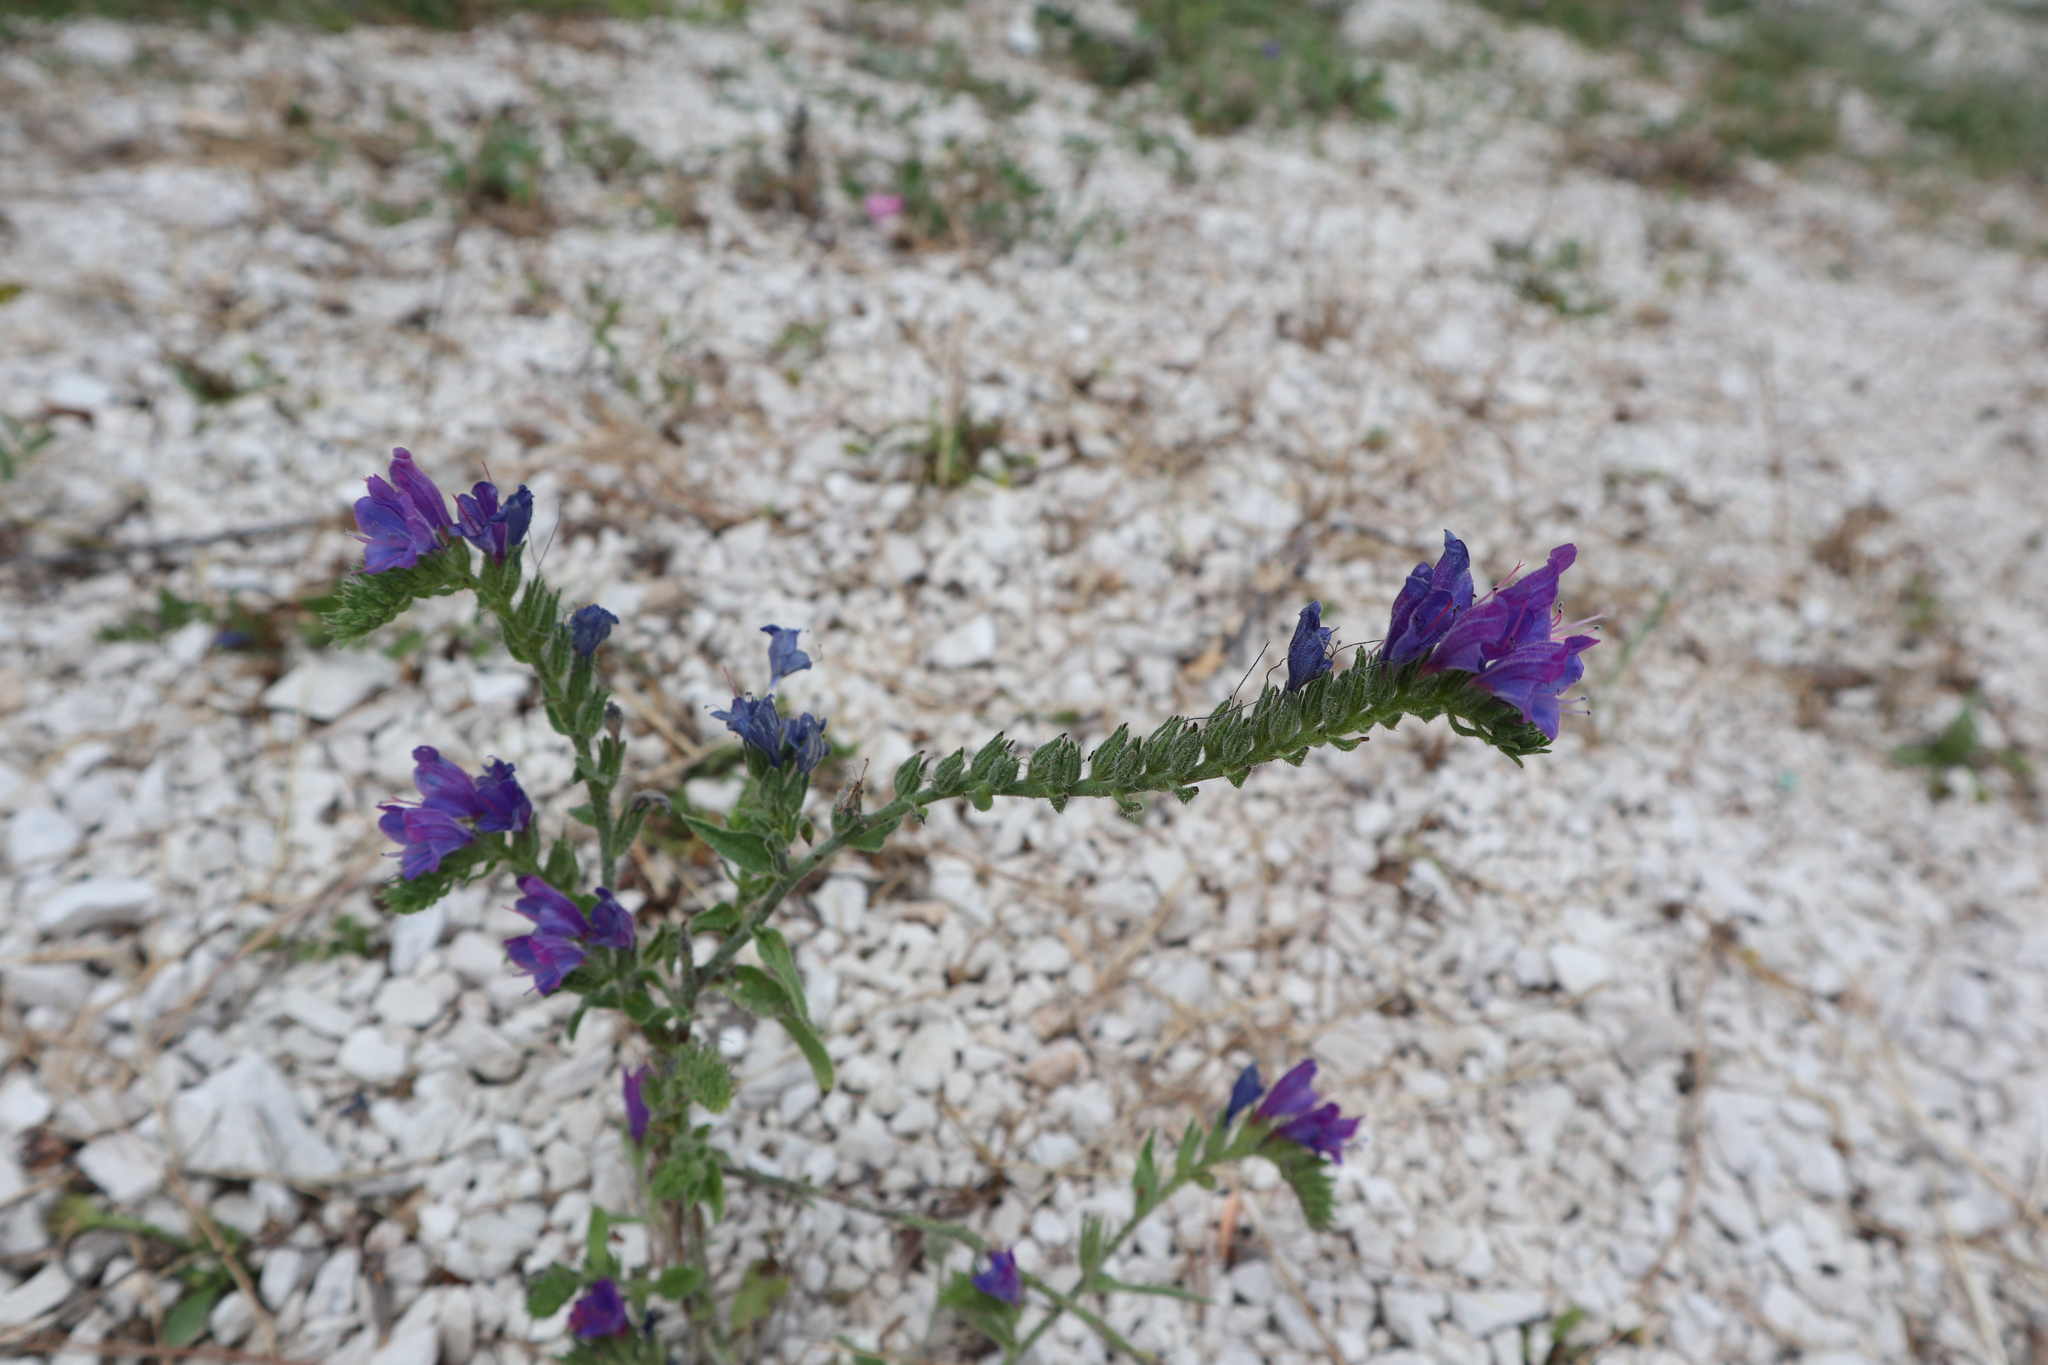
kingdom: Plantae
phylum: Tracheophyta
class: Magnoliopsida
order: Boraginales
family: Boraginaceae
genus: Echium
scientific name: Echium vulgare
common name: Common viper's bugloss
